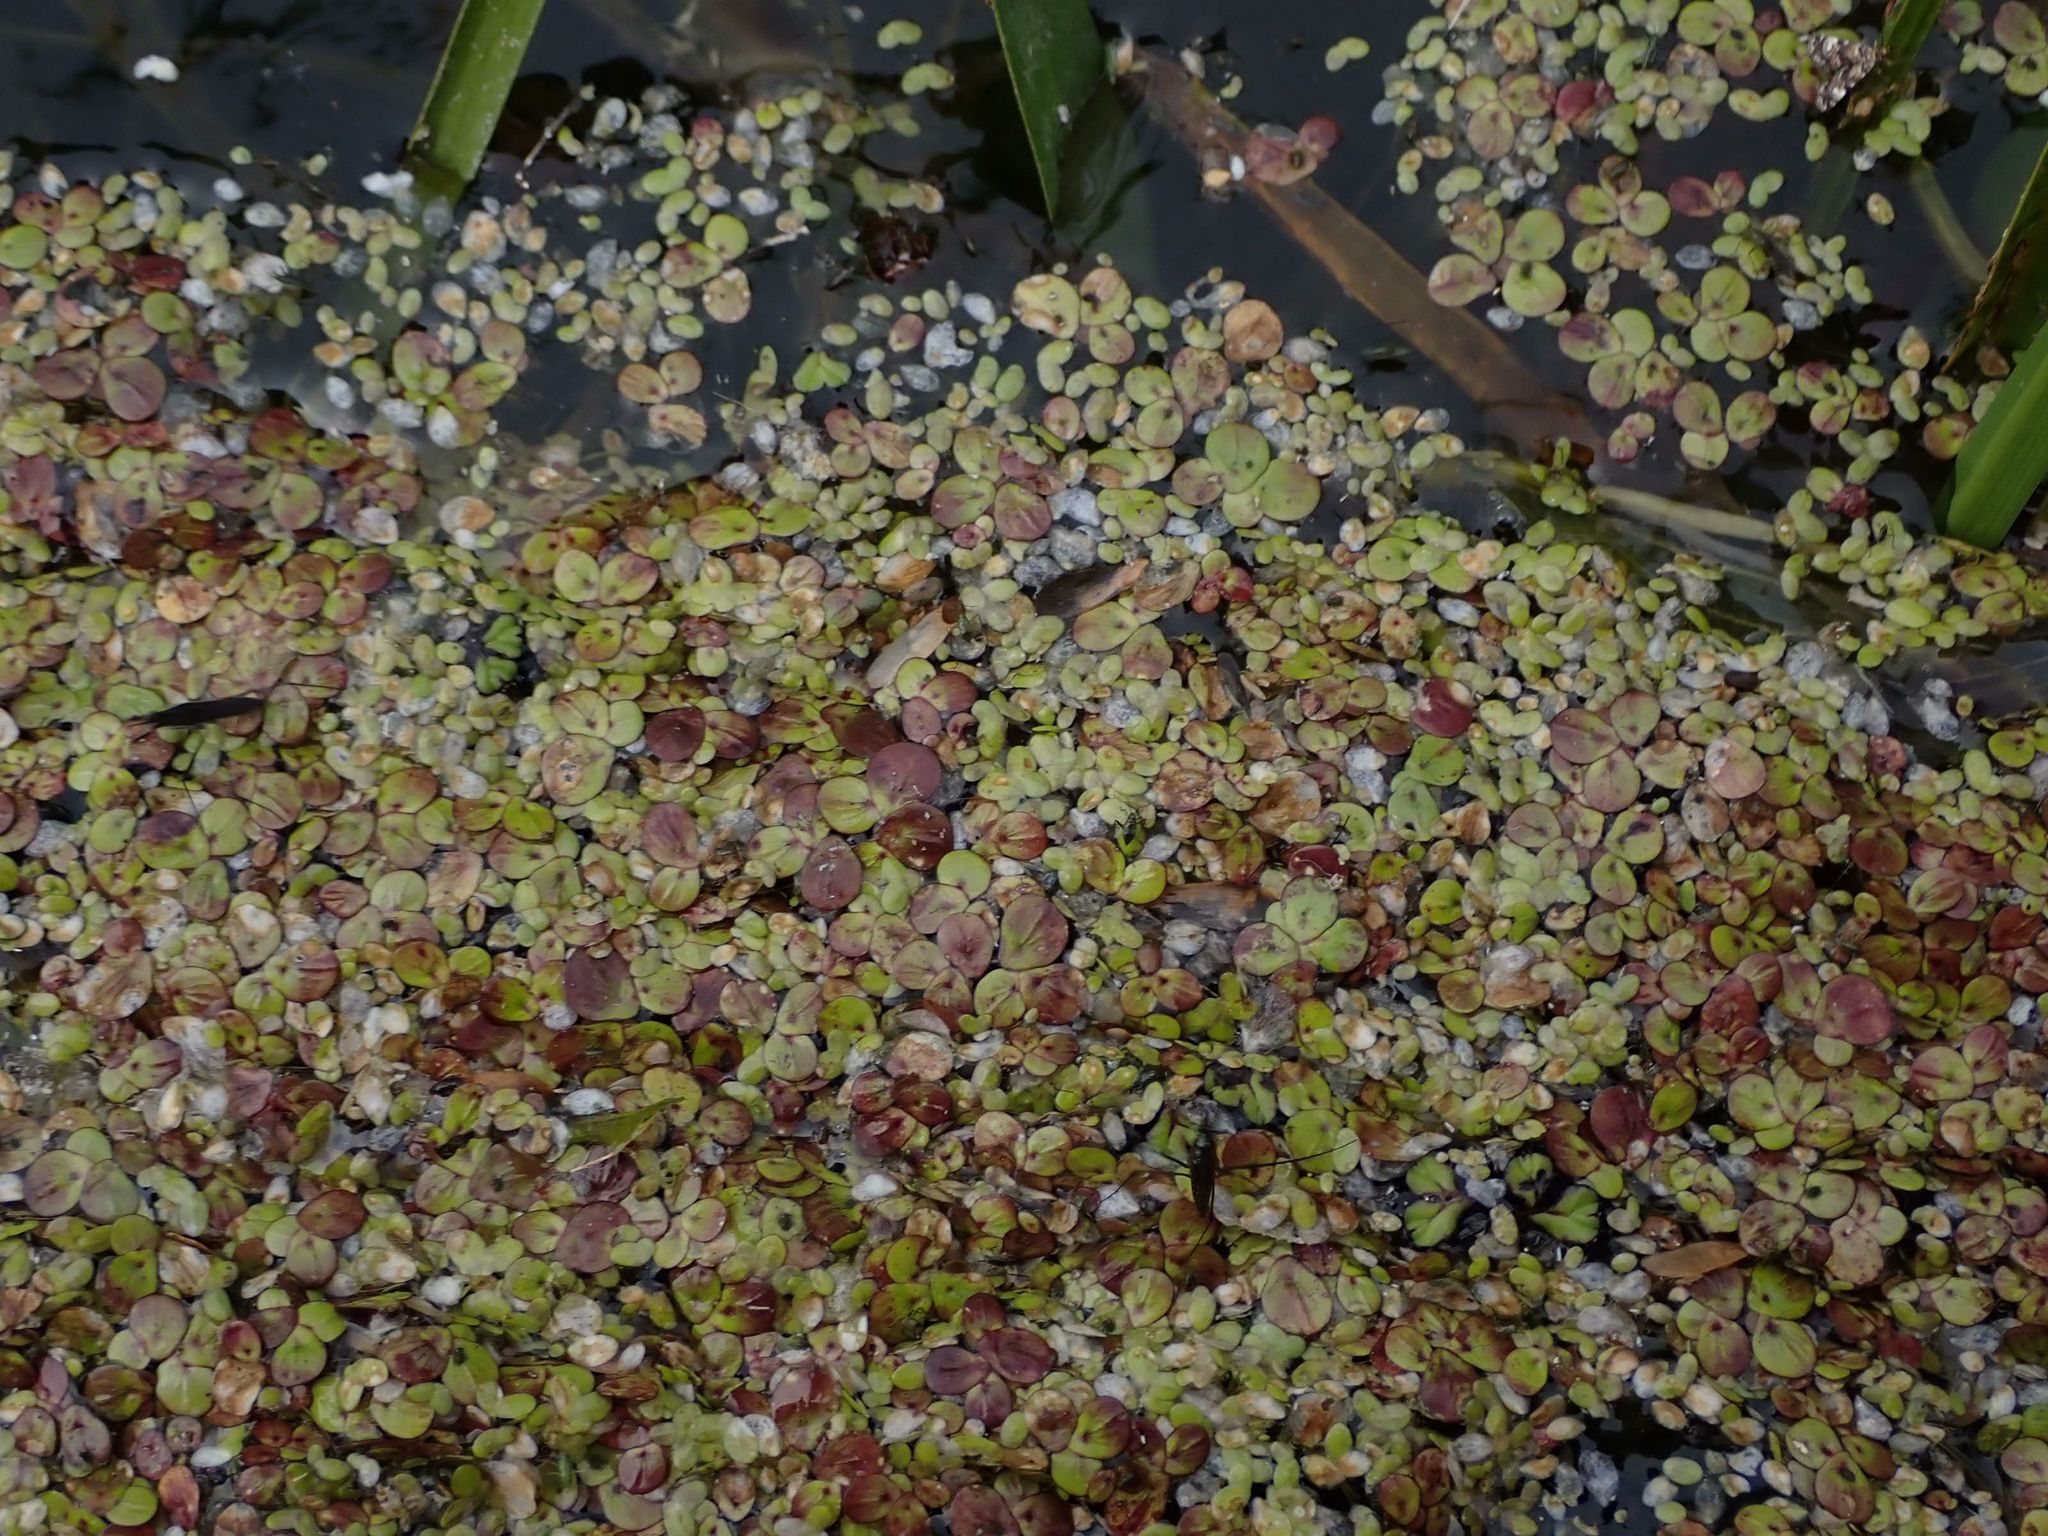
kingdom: Plantae
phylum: Tracheophyta
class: Liliopsida
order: Alismatales
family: Araceae
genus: Spirodela
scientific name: Spirodela polyrhiza
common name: Great duckweed
